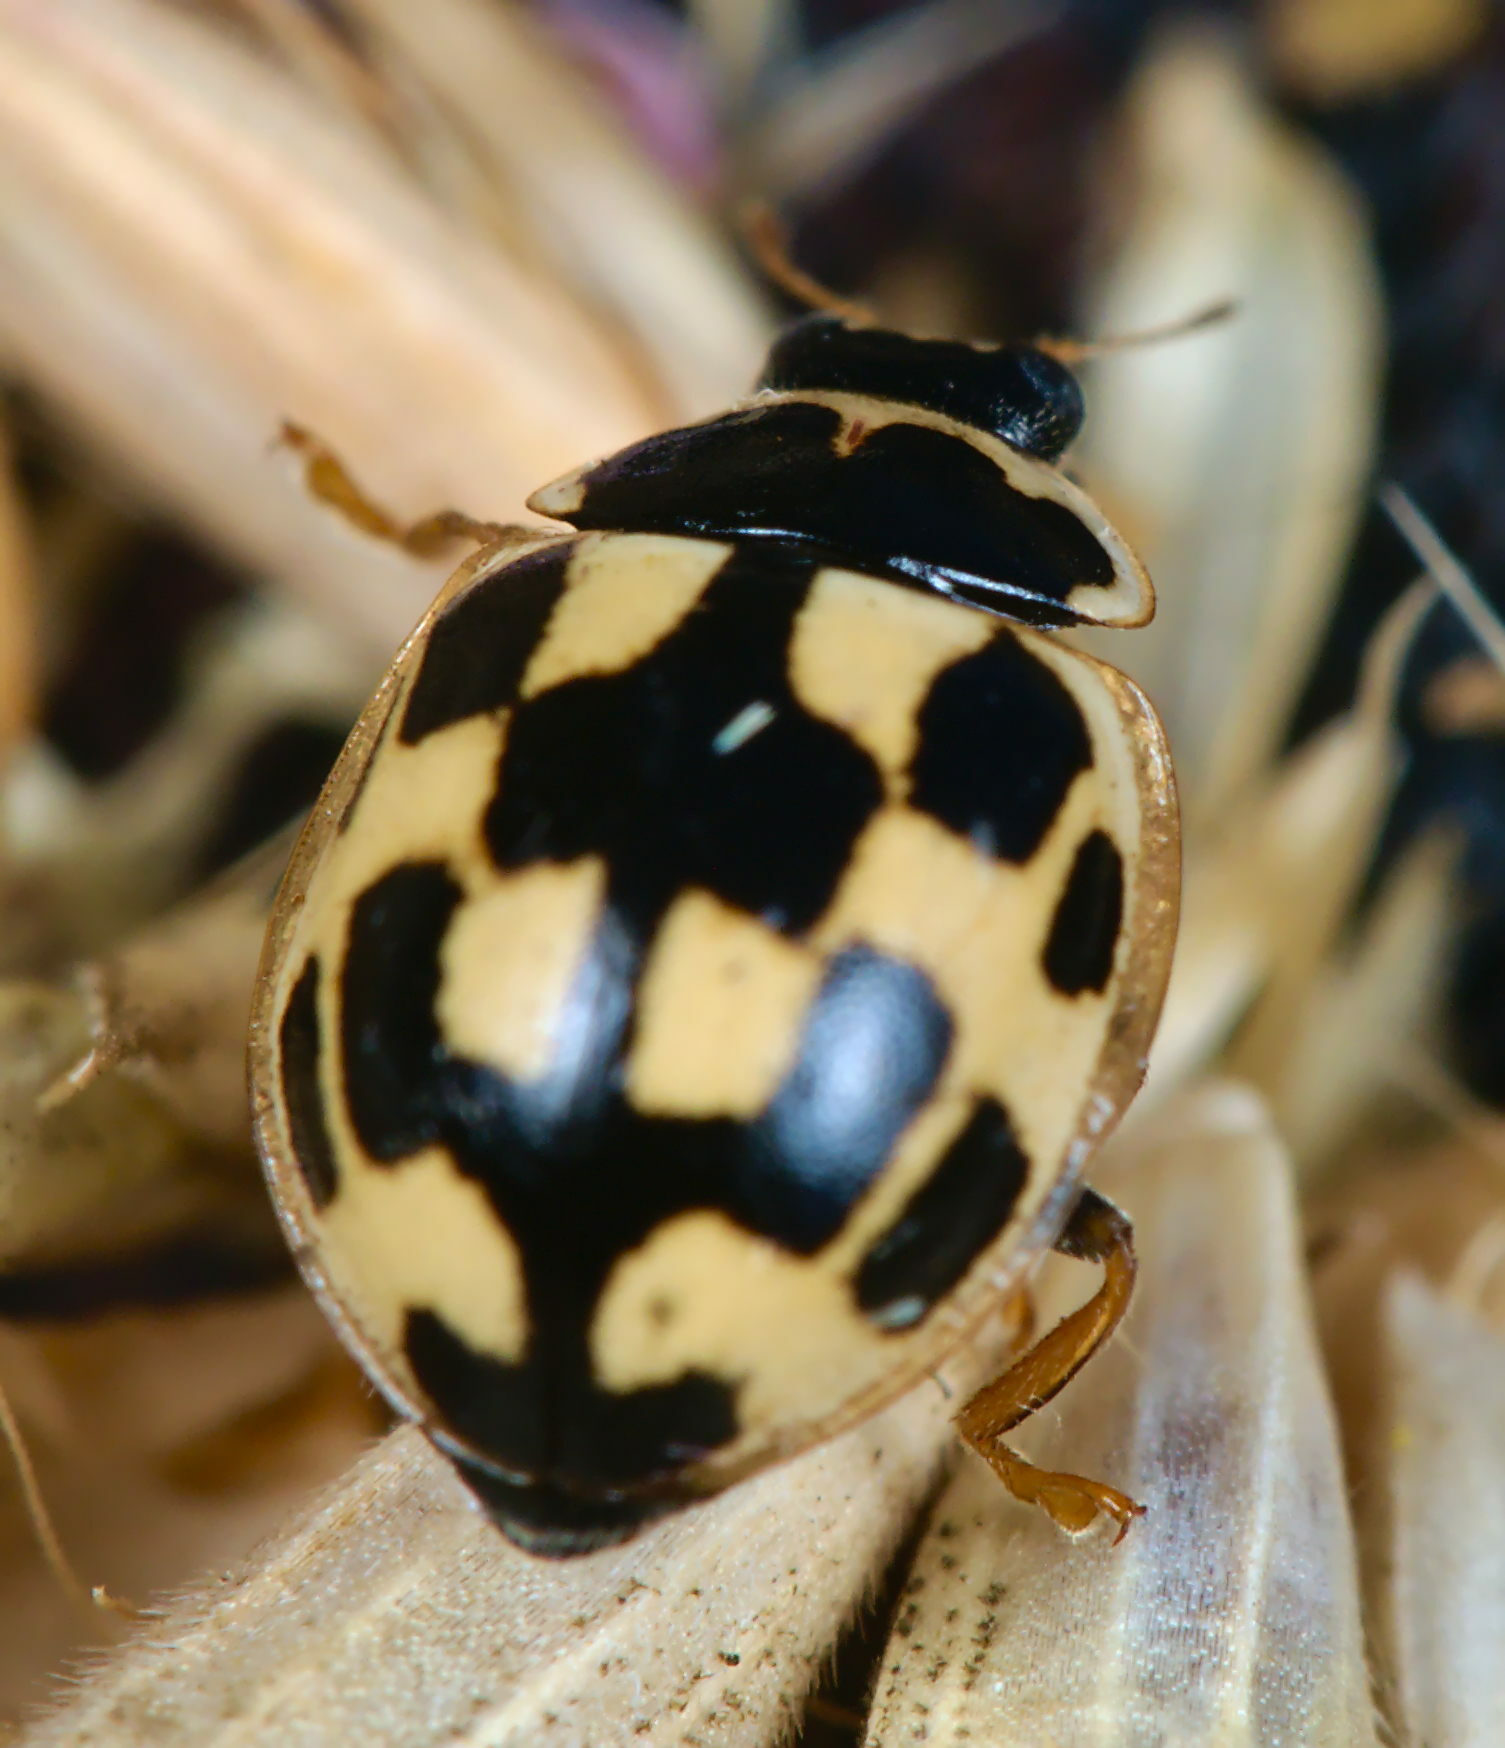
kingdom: Animalia
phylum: Arthropoda
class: Insecta
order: Coleoptera
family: Coccinellidae
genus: Propylaea
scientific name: Propylaea quatuordecimpunctata
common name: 14-spotted ladybird beetle
